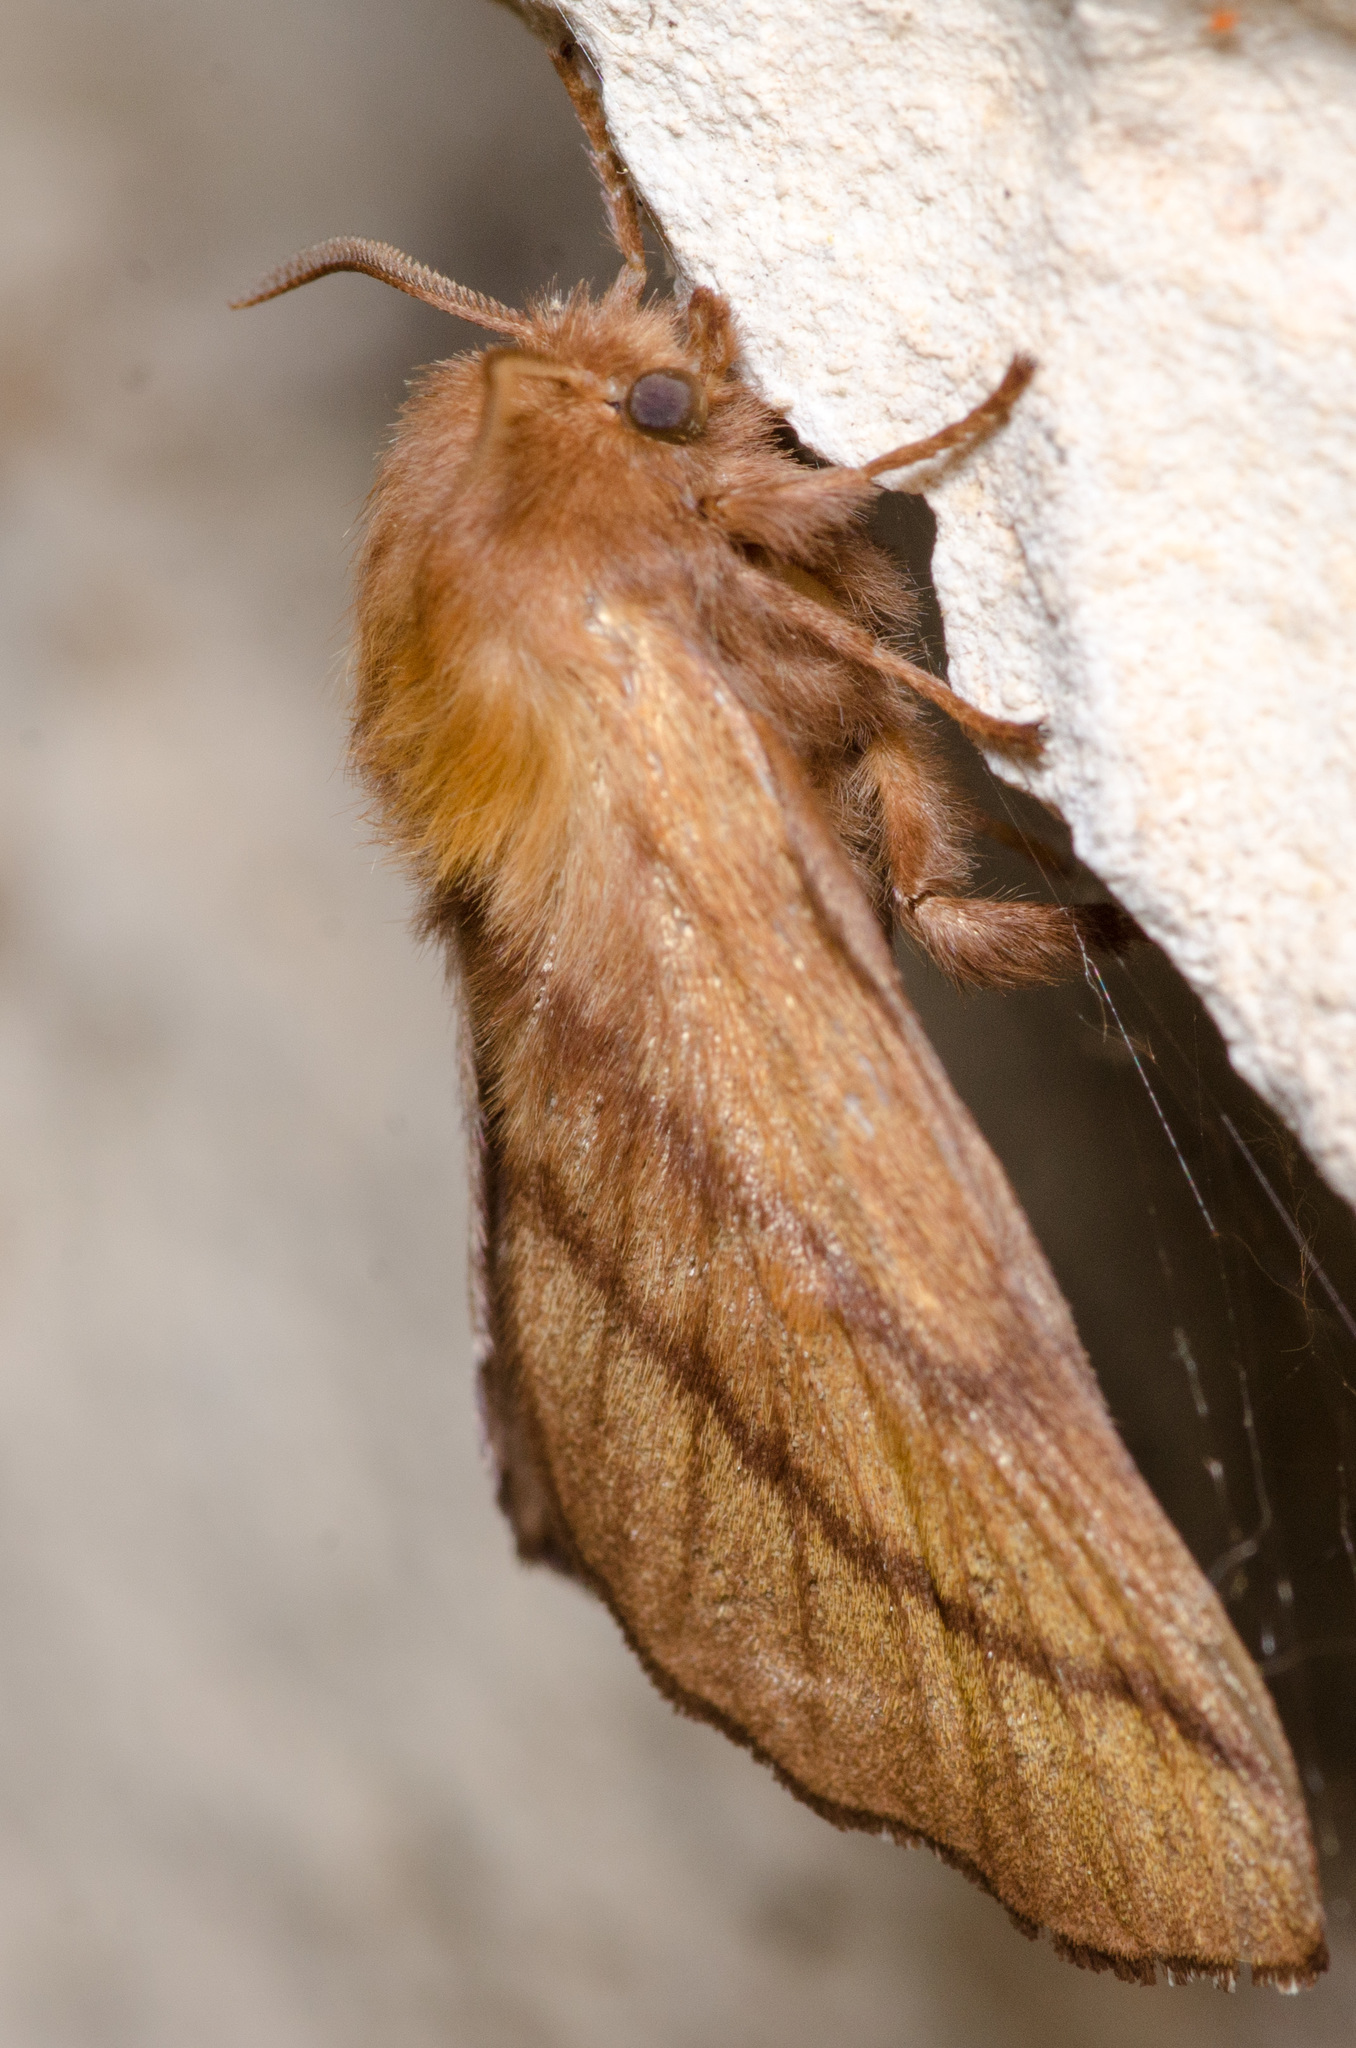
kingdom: Animalia
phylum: Arthropoda
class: Insecta
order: Lepidoptera
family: Lasiocampidae
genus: Malacosoma
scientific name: Malacosoma disstria
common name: Forest tent caterpillar
